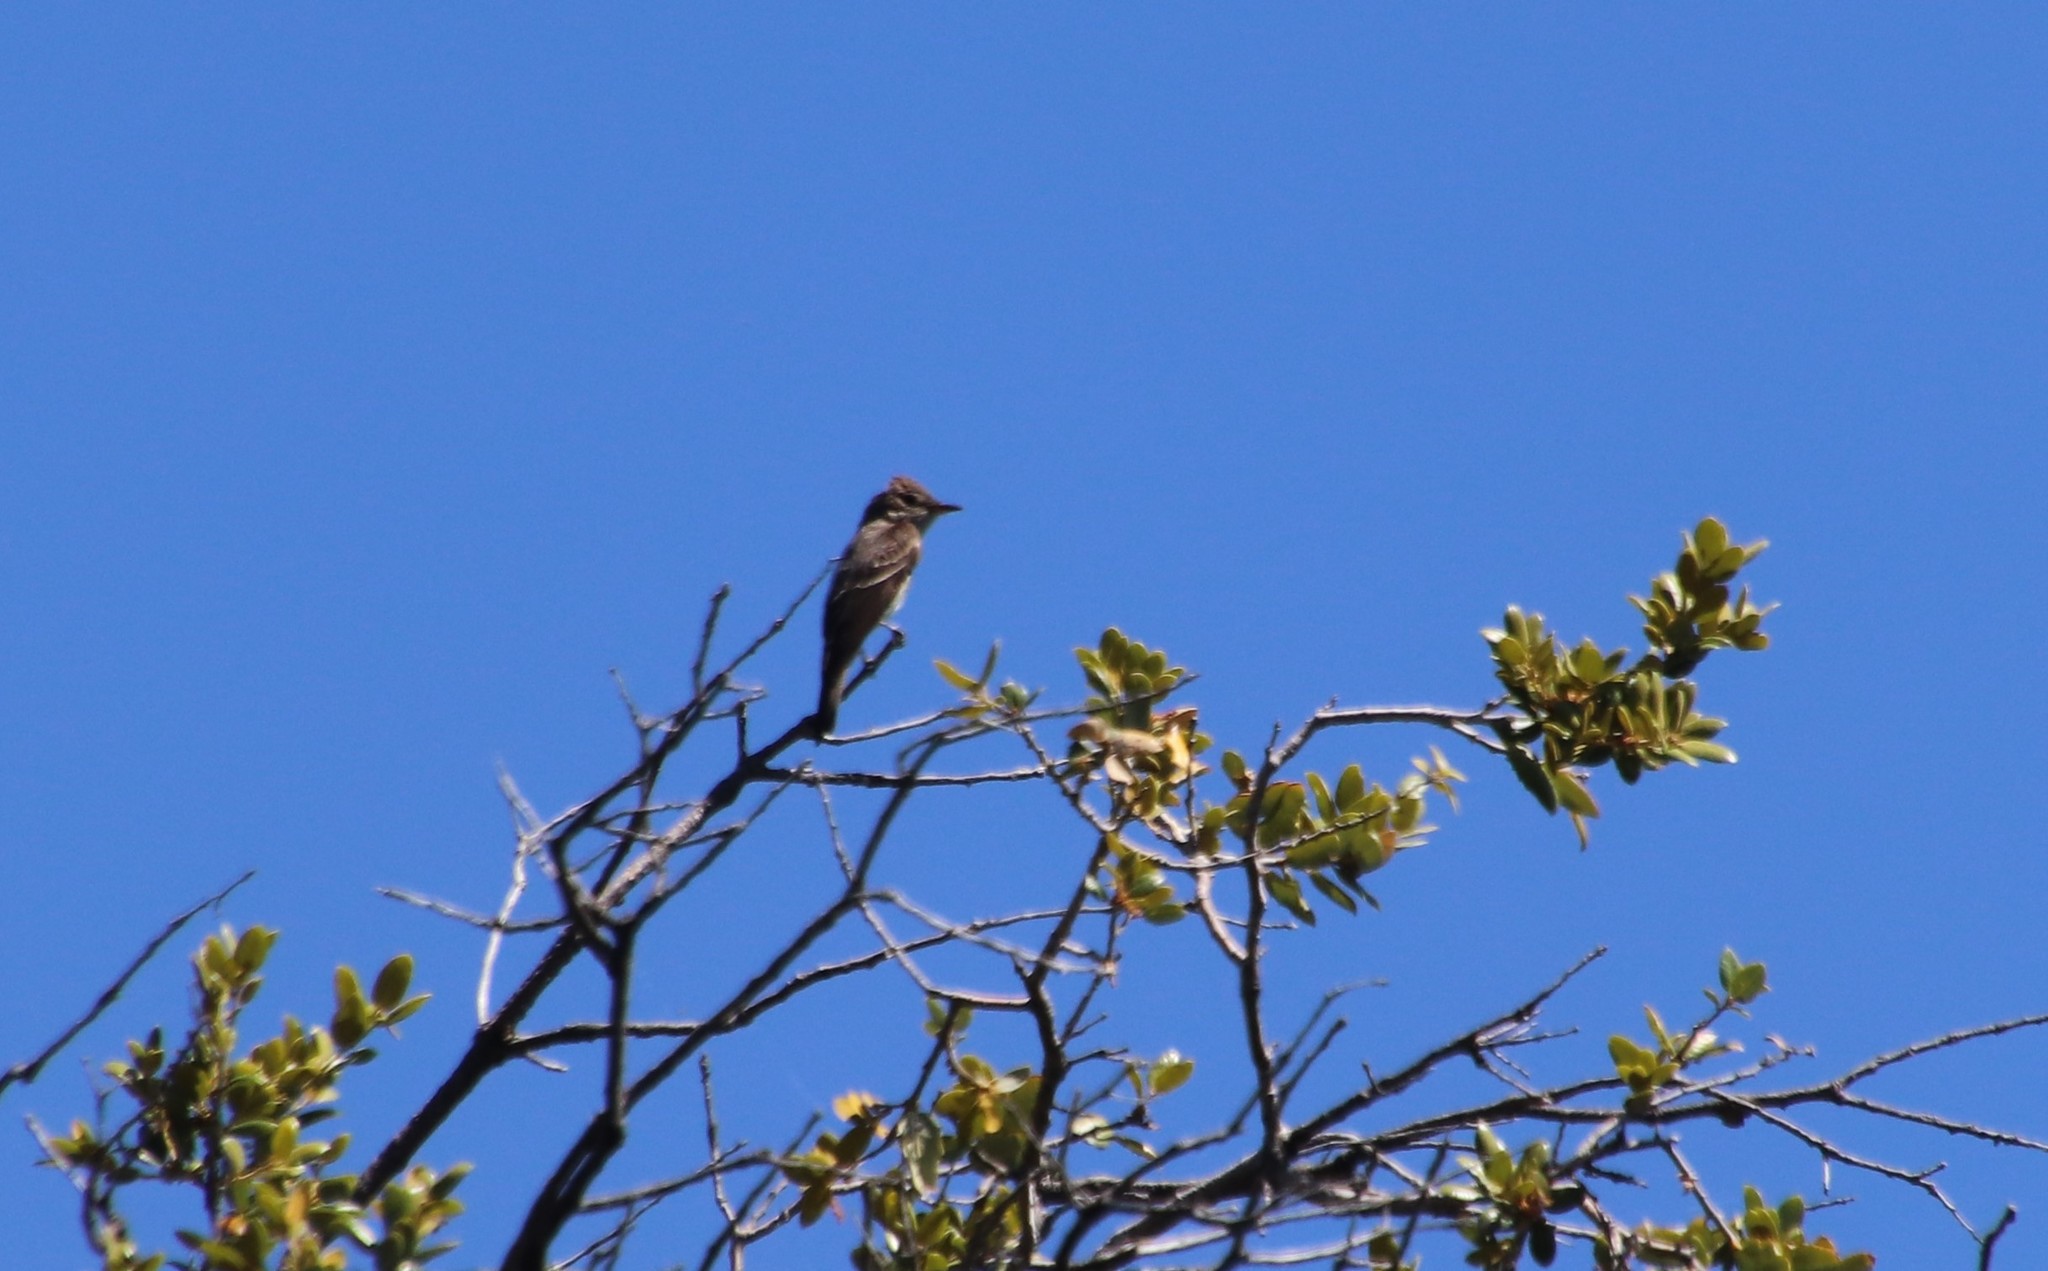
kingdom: Animalia
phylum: Chordata
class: Aves
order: Passeriformes
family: Tyrannidae
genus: Contopus
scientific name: Contopus sordidulus
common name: Western wood-pewee
